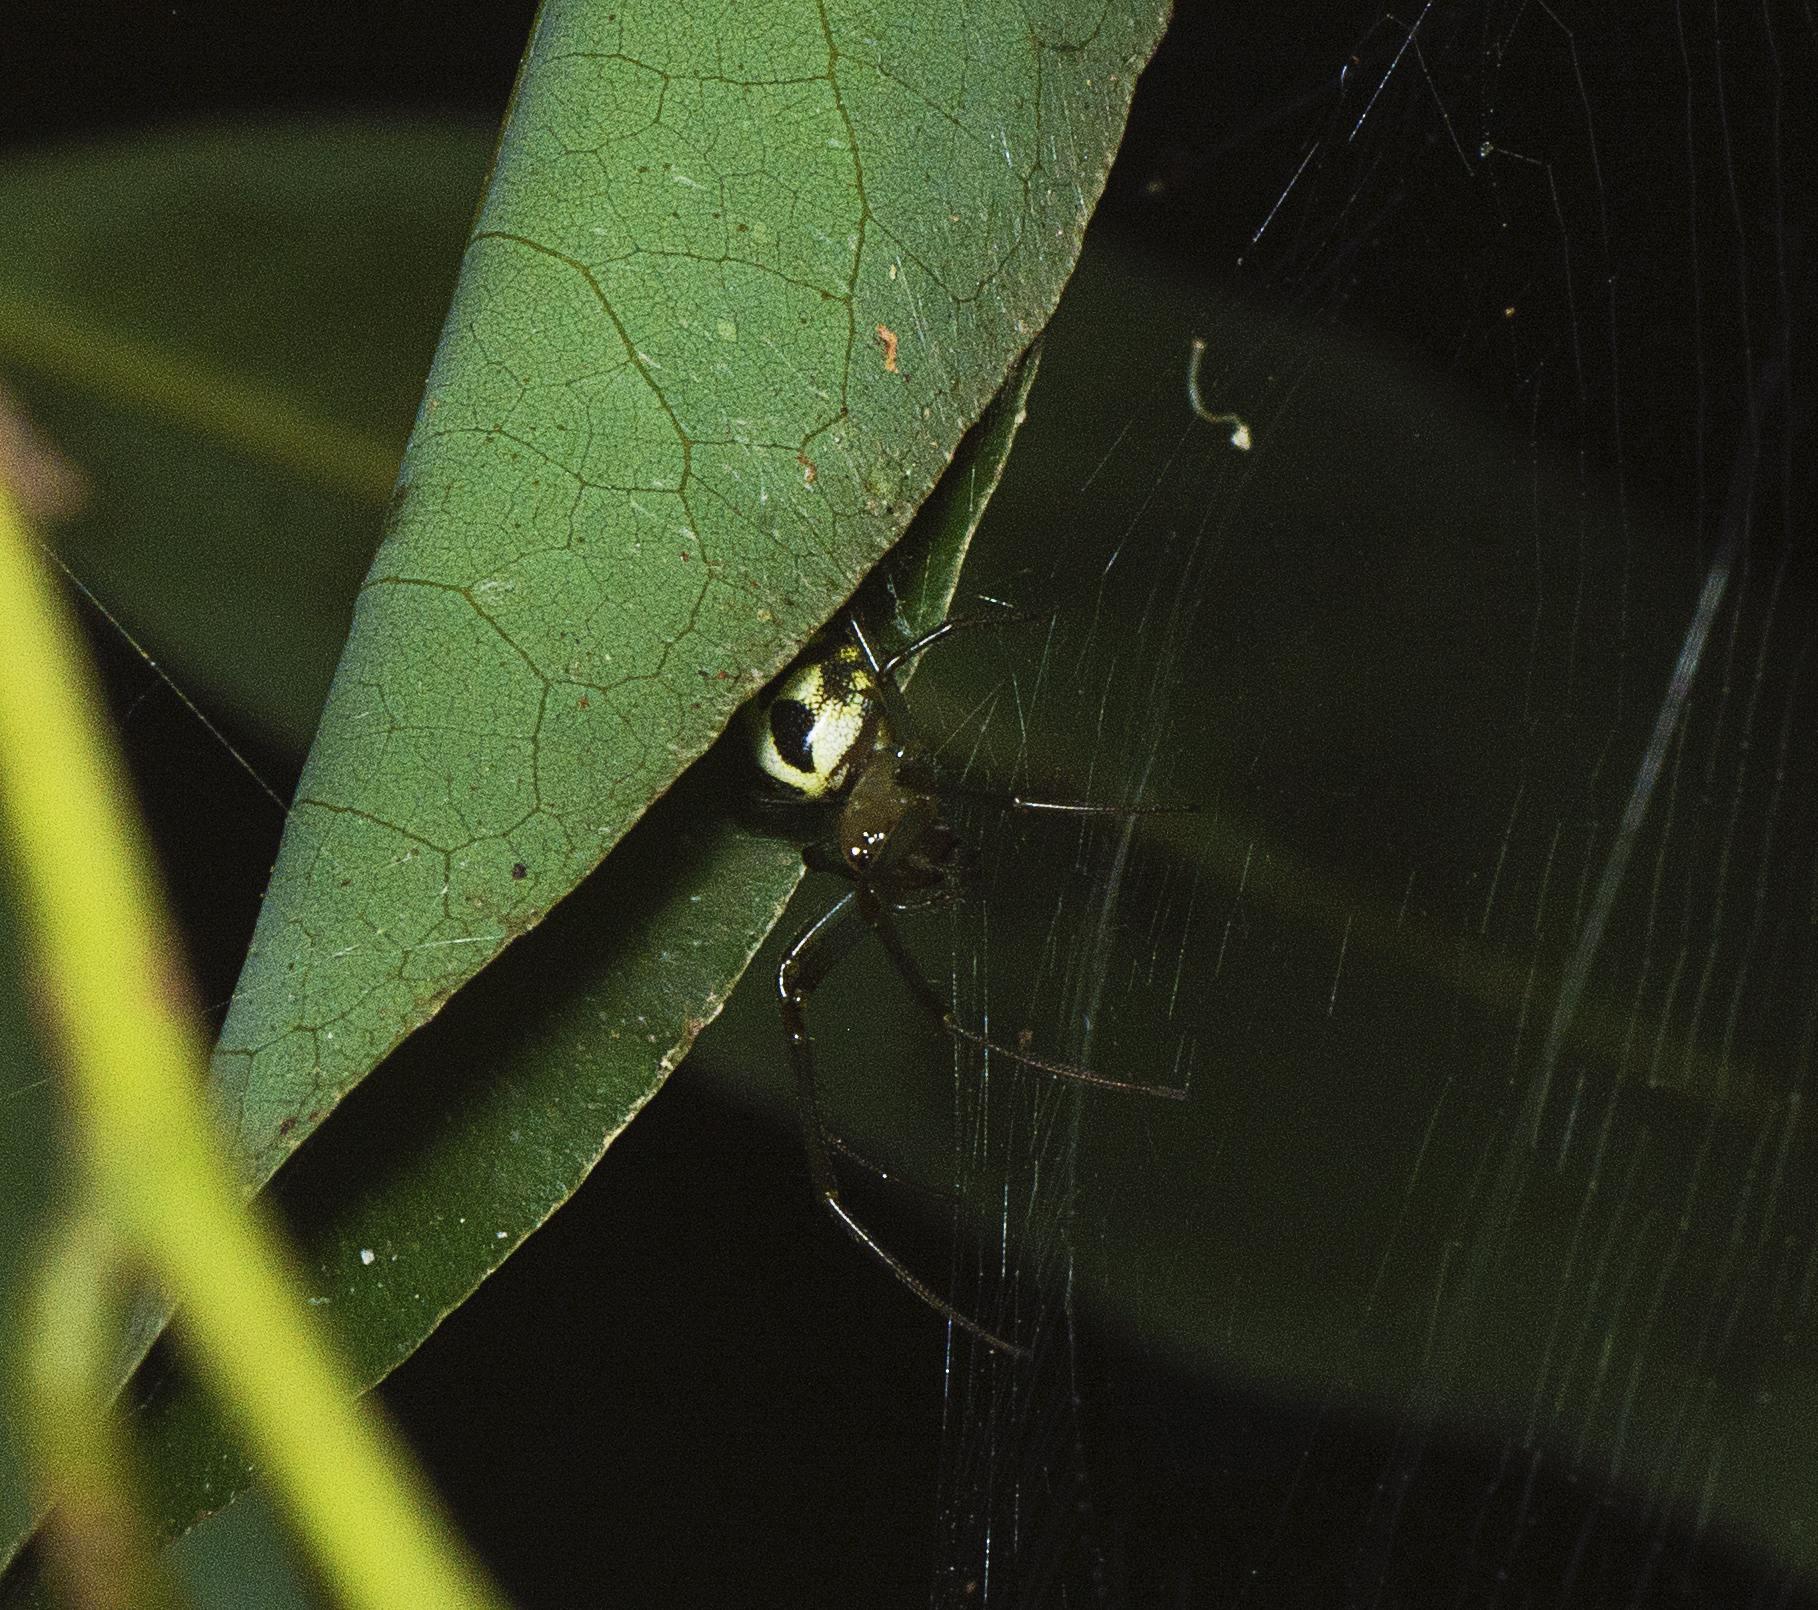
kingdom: Animalia
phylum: Arthropoda
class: Arachnida
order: Araneae
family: Araneidae
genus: Phonognatha
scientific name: Phonognatha graeffei
